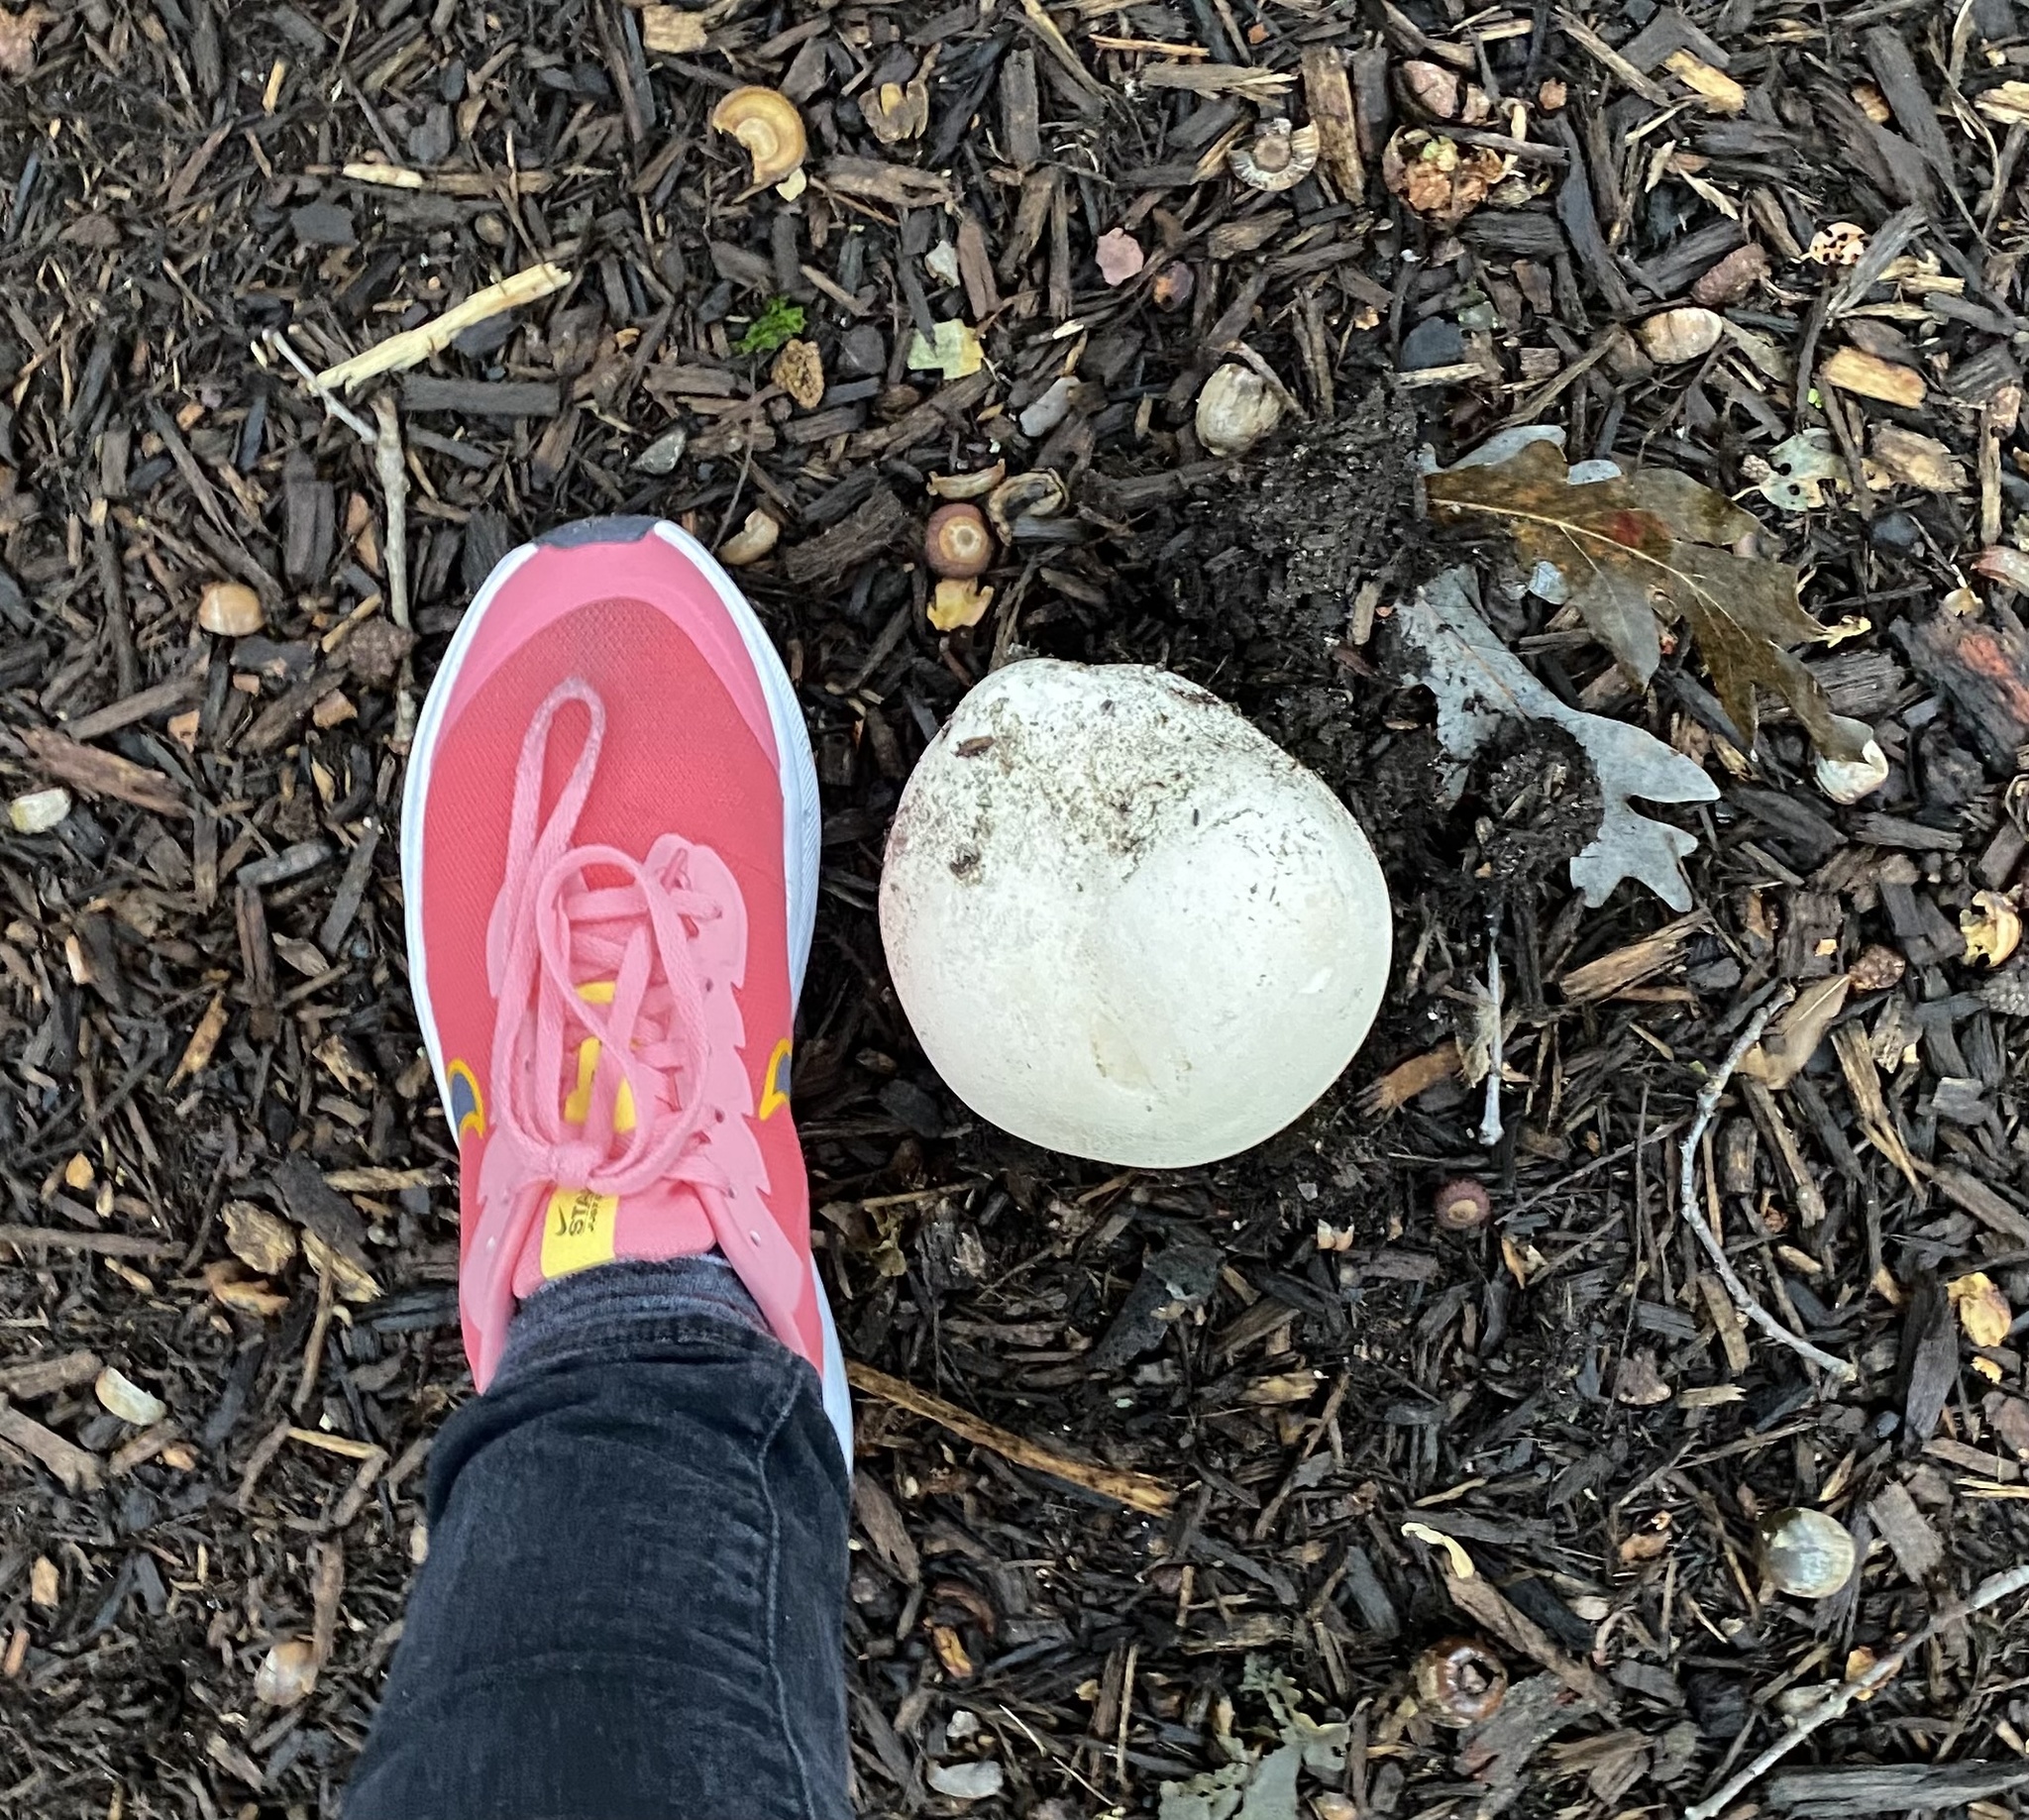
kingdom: Fungi
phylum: Basidiomycota
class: Agaricomycetes
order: Agaricales
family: Lycoperdaceae
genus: Calvatia
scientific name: Calvatia gigantea
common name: Giant puffball
